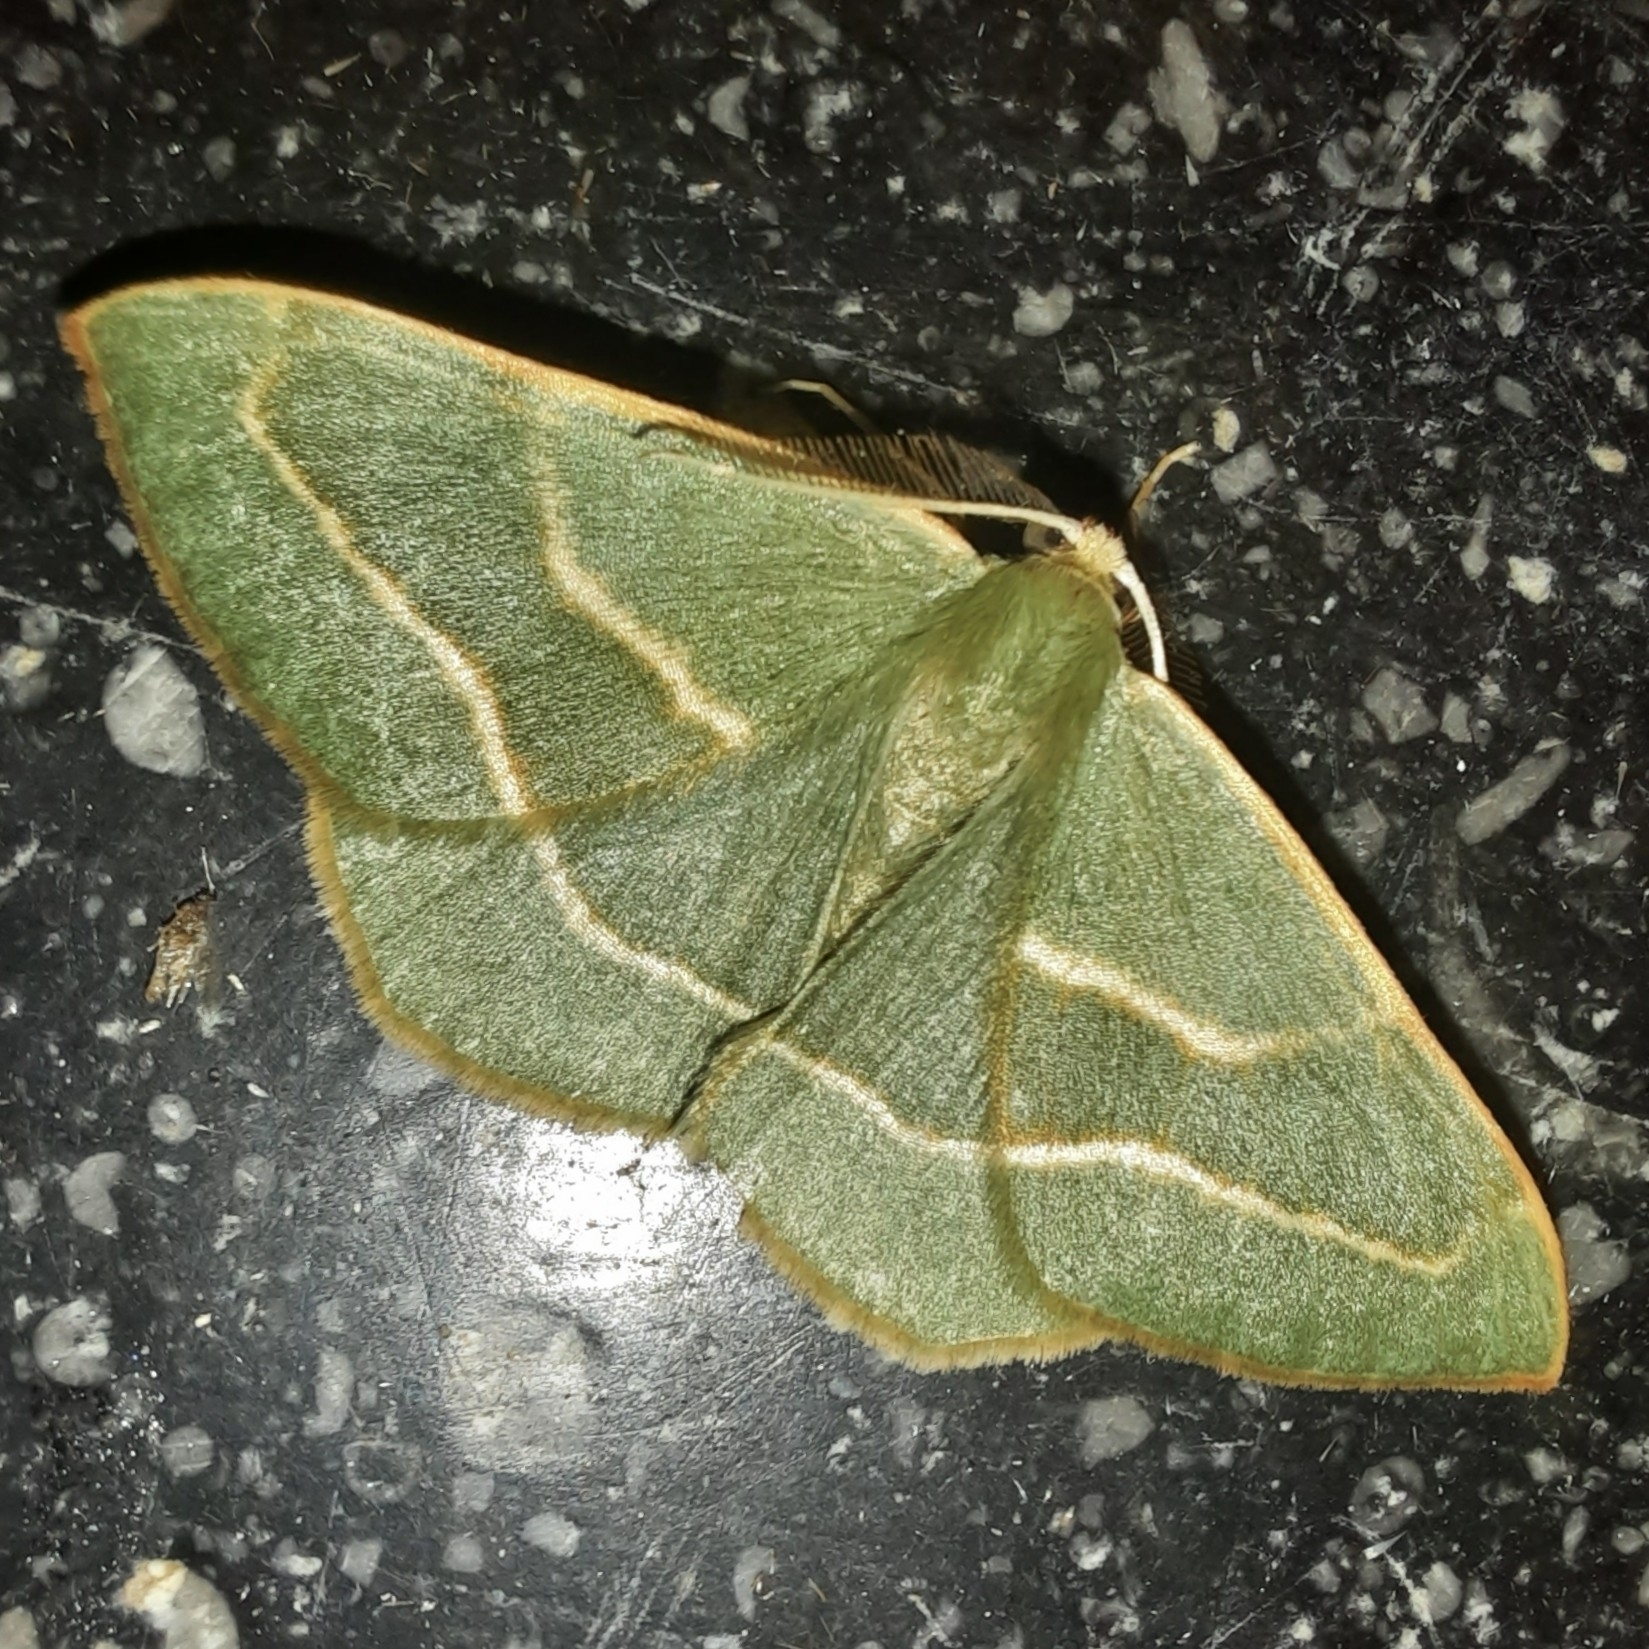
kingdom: Animalia
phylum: Arthropoda
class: Insecta
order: Lepidoptera
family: Geometridae
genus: Hylaea
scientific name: Hylaea fasciaria
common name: Barred red
